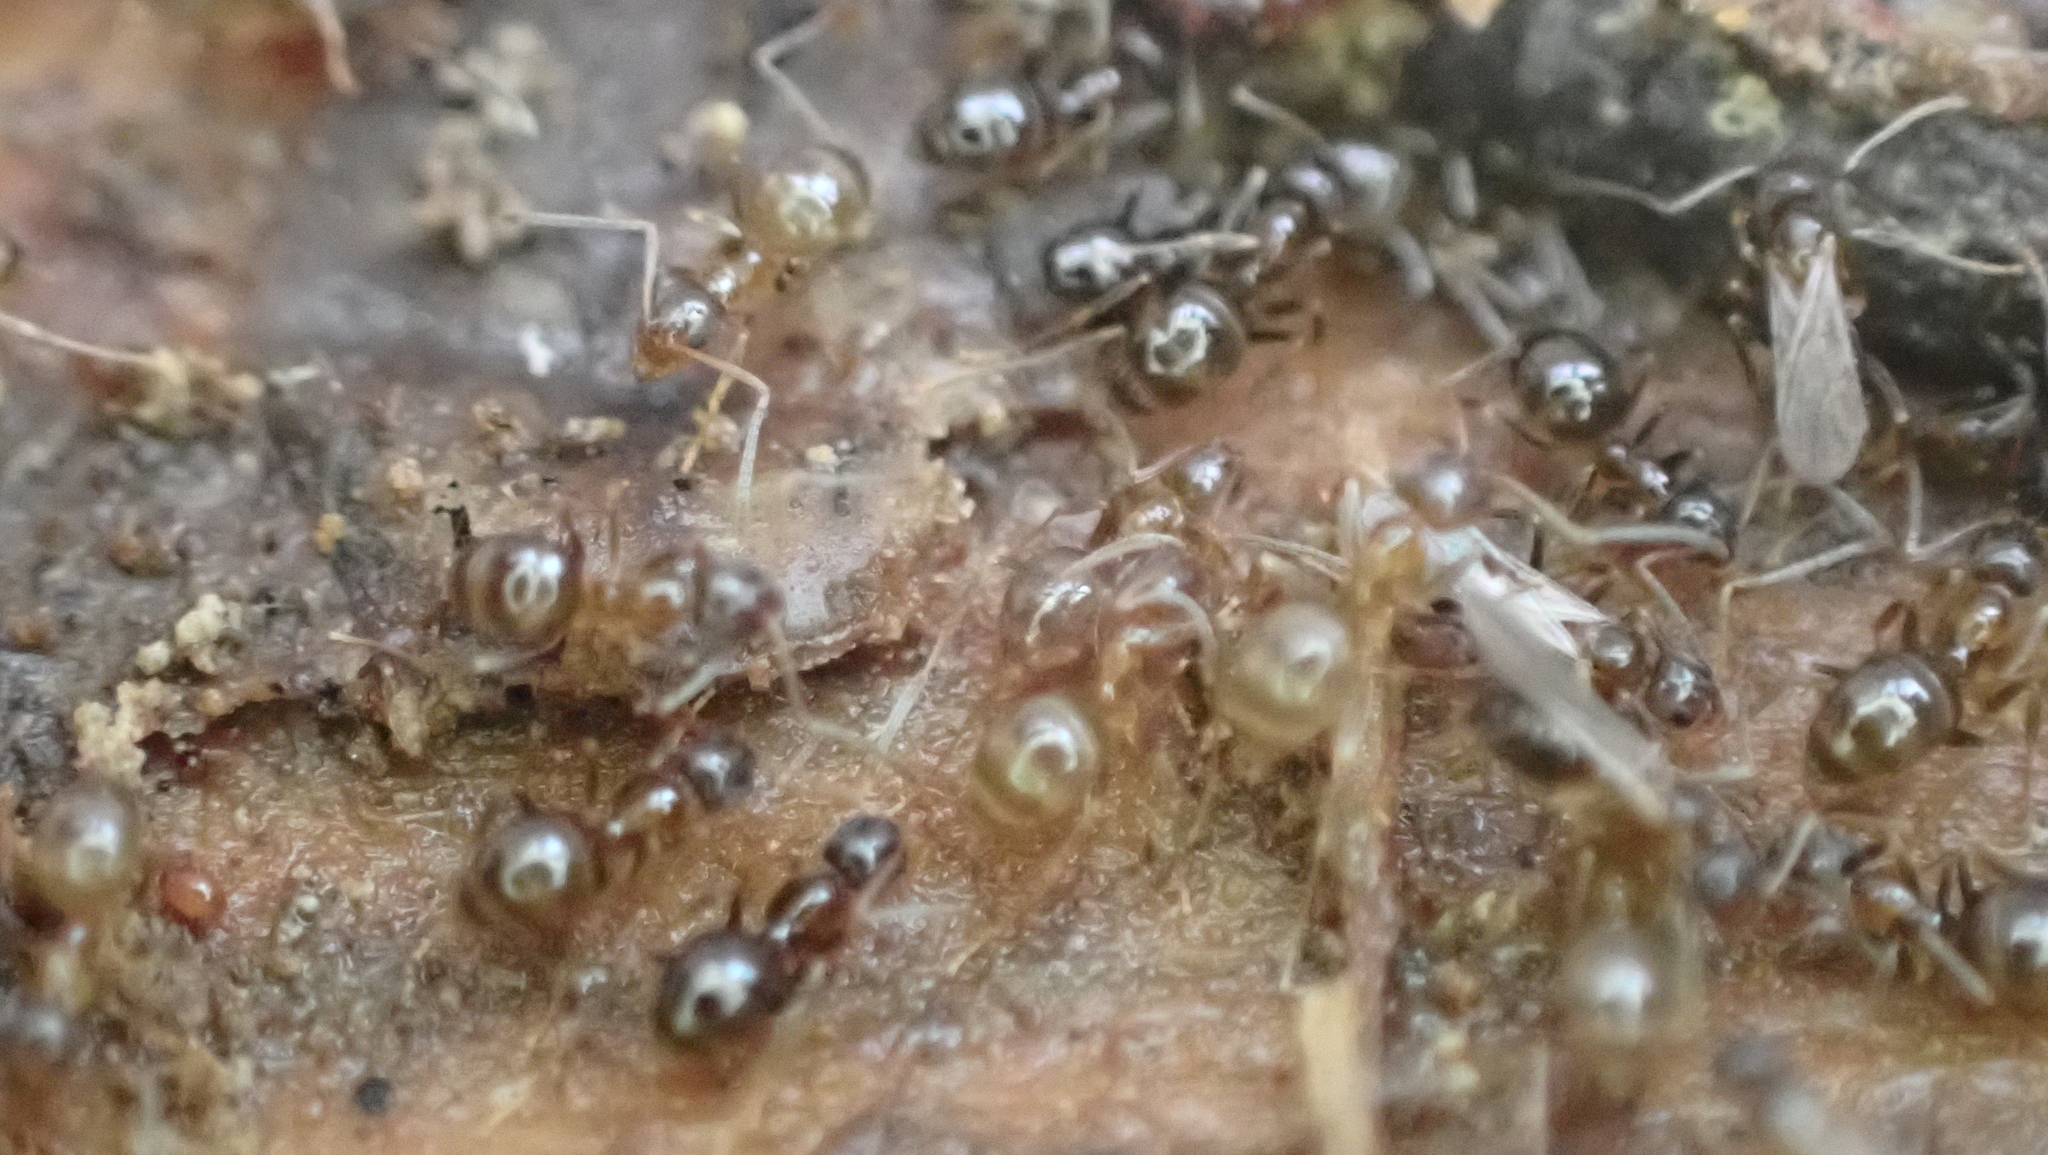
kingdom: Animalia
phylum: Arthropoda
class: Insecta
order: Hymenoptera
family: Formicidae
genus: Nylanderia
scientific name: Nylanderia faisonensis
